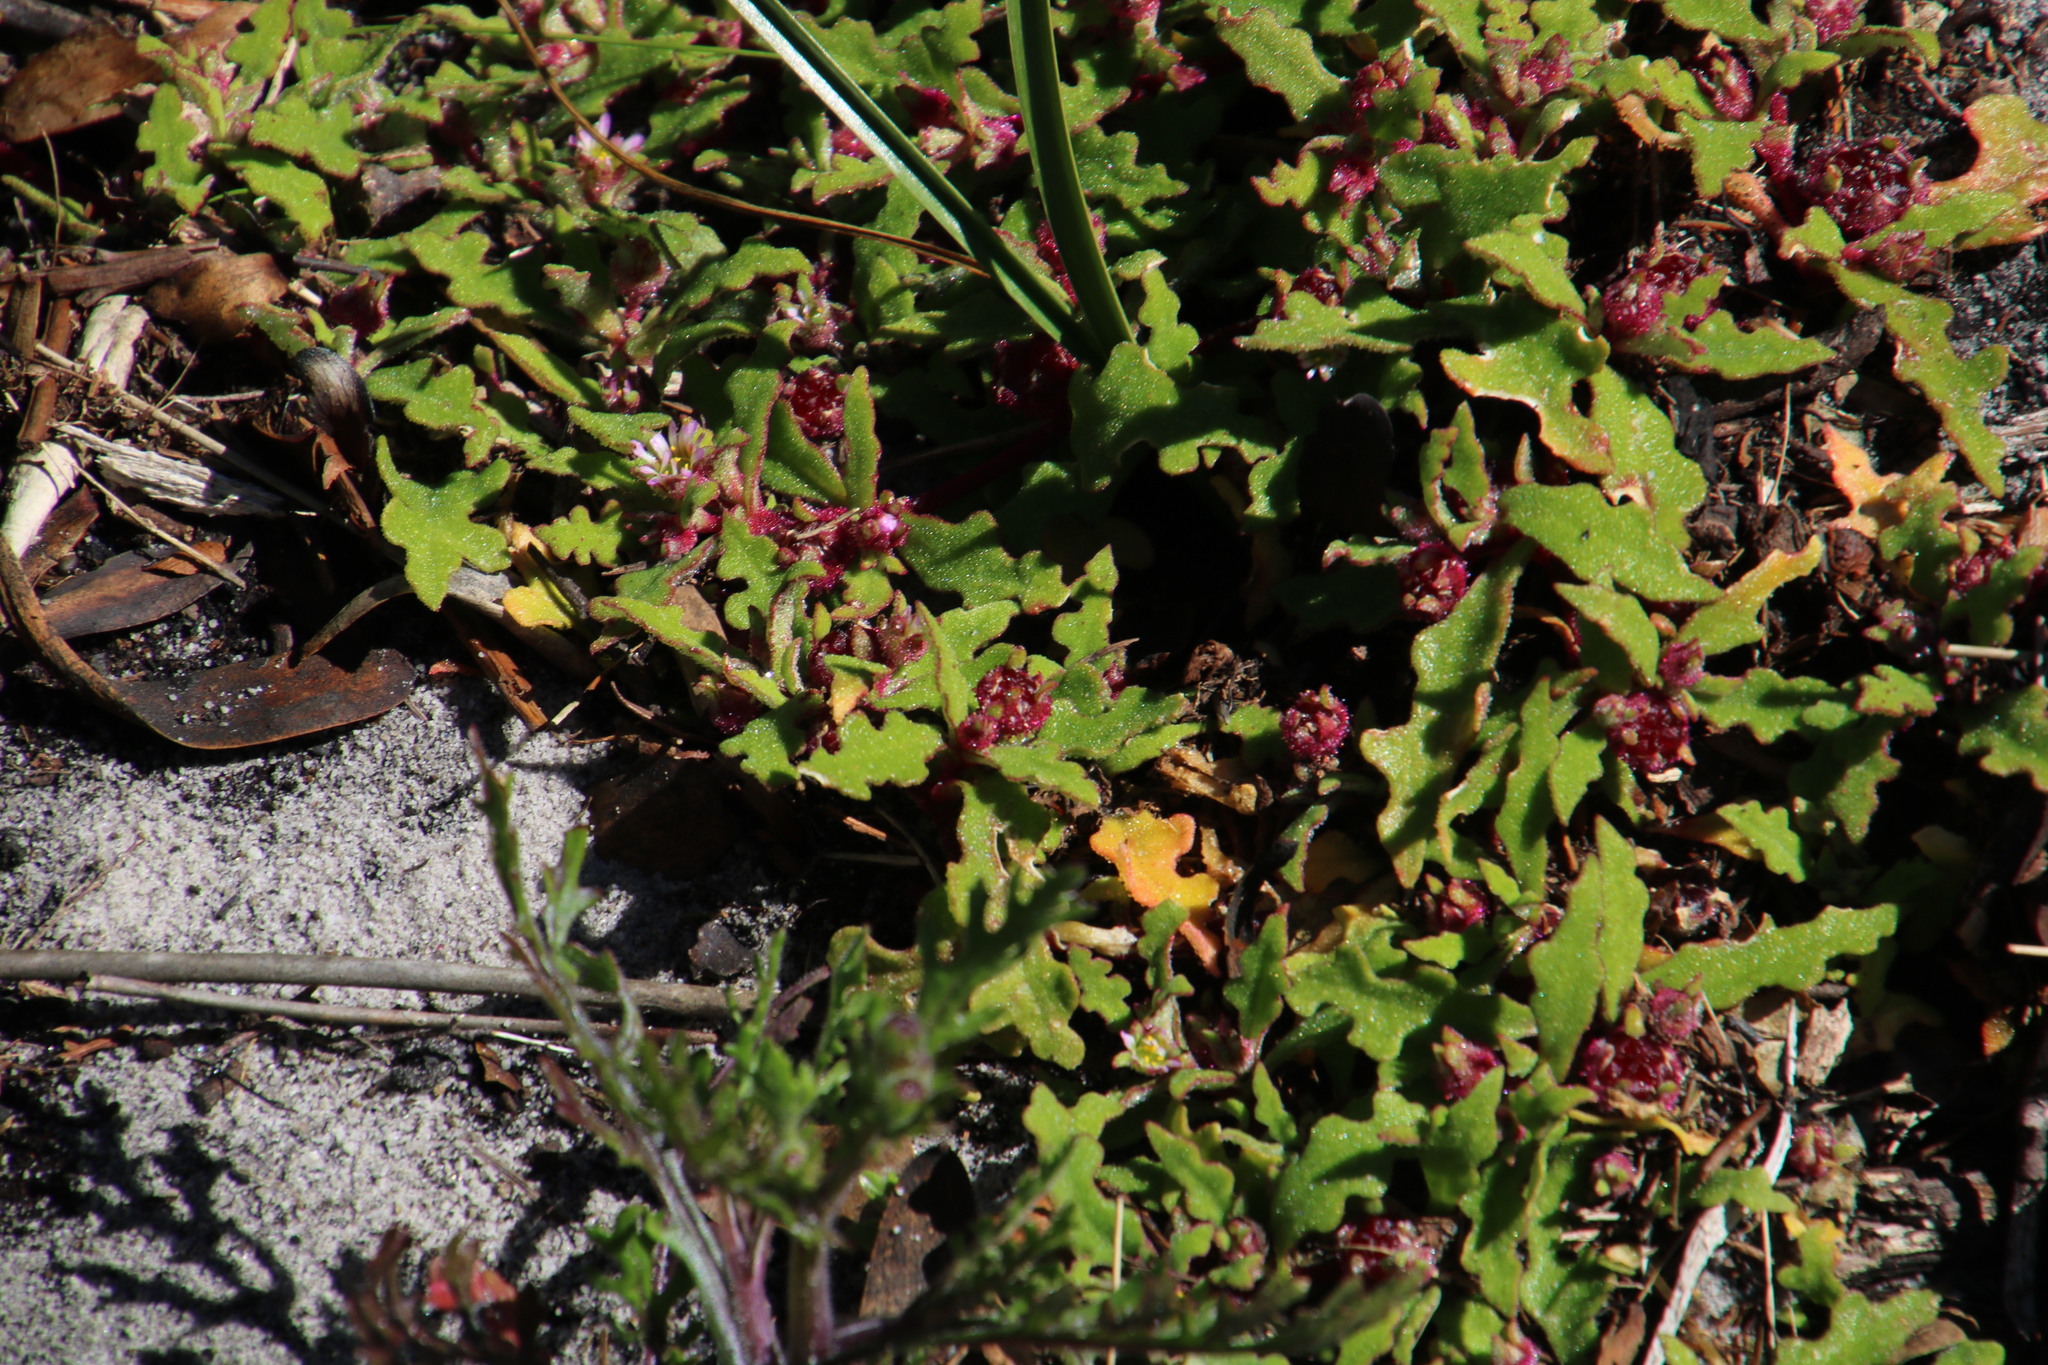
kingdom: Plantae
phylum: Tracheophyta
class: Magnoliopsida
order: Caryophyllales
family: Aizoaceae
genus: Cleretum
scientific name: Cleretum herrei
